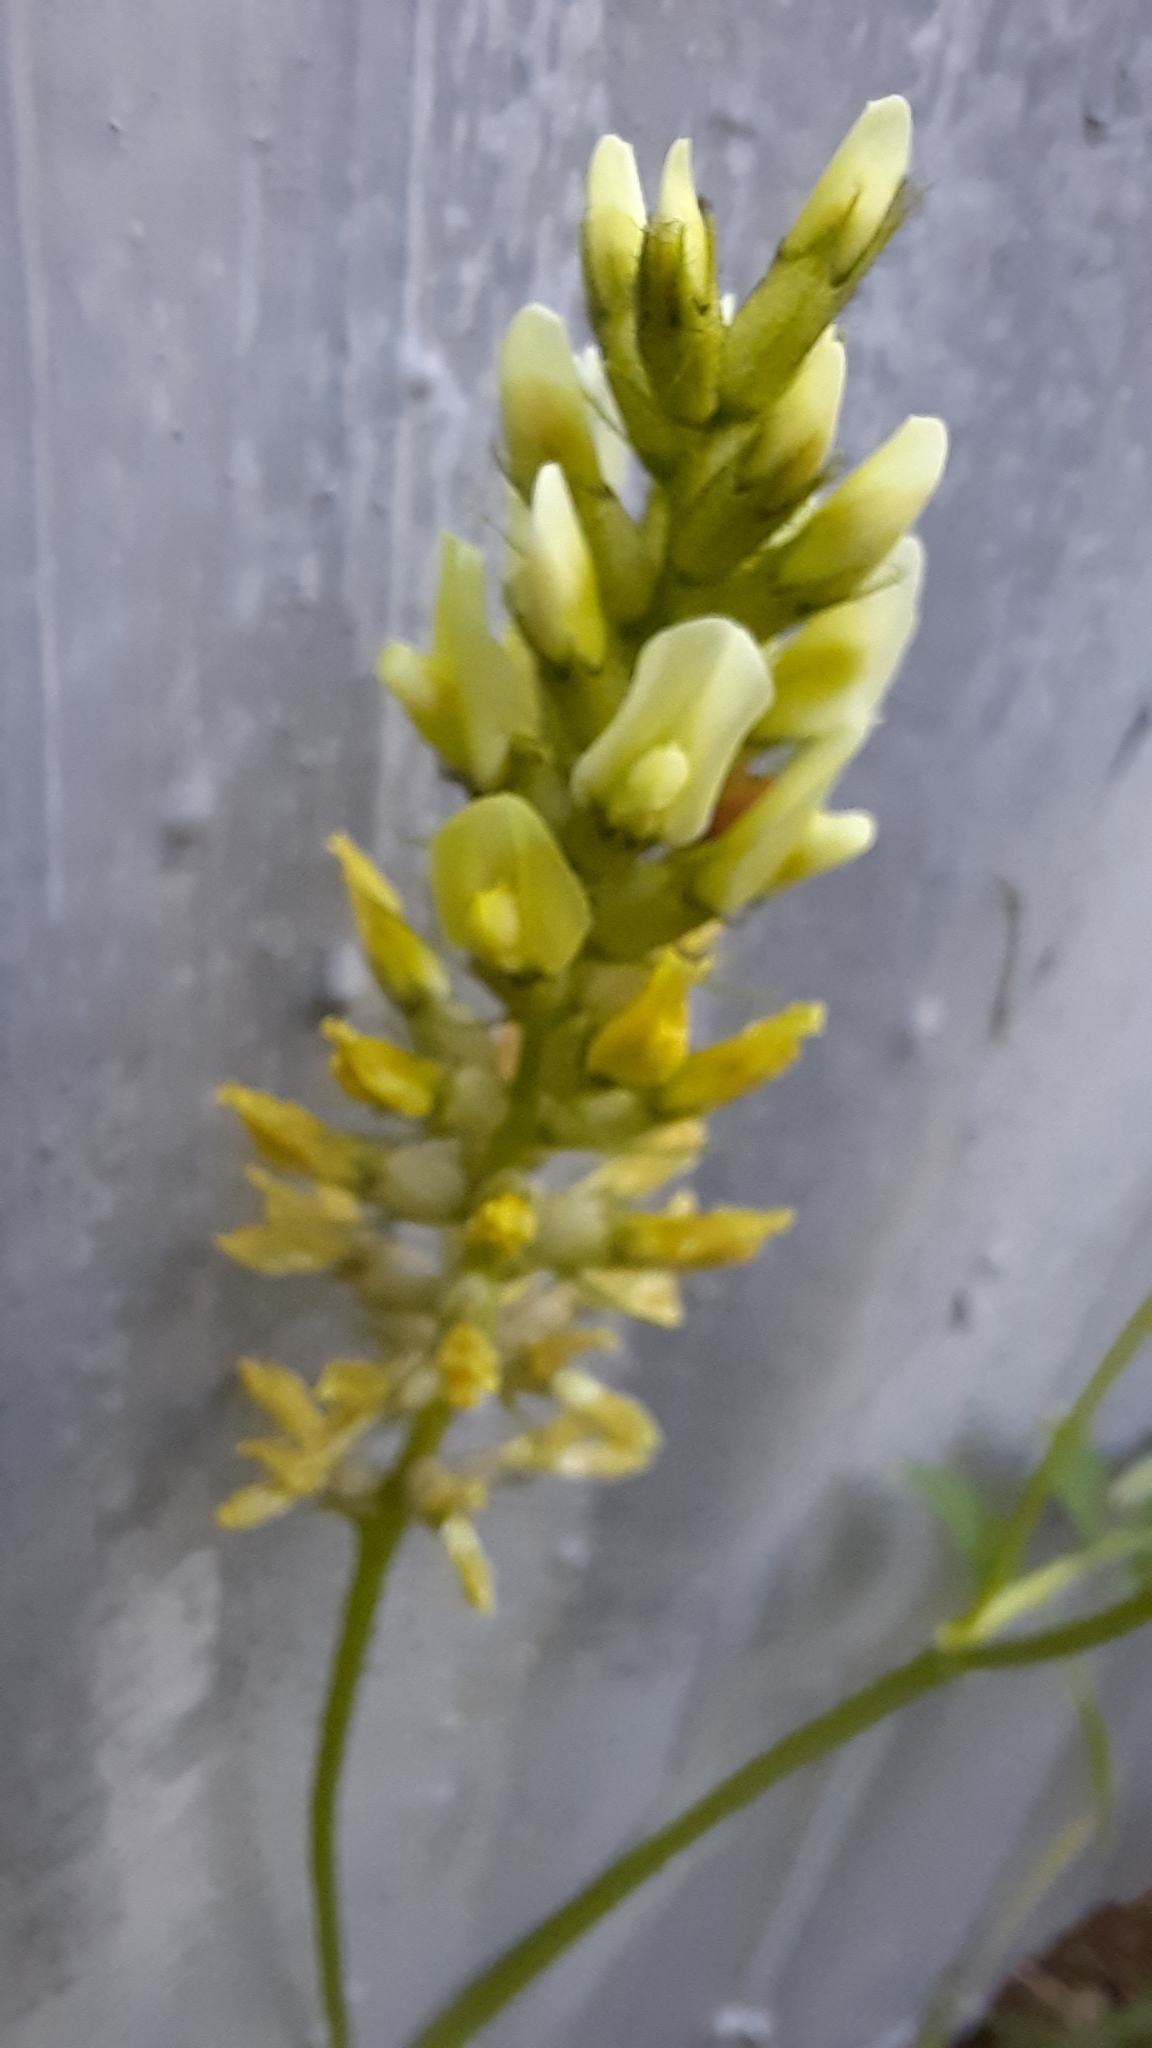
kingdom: Plantae
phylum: Tracheophyta
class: Magnoliopsida
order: Fabales
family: Fabaceae
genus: Astragalus
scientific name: Astragalus cicer
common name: Chick-pea milk-vetch
